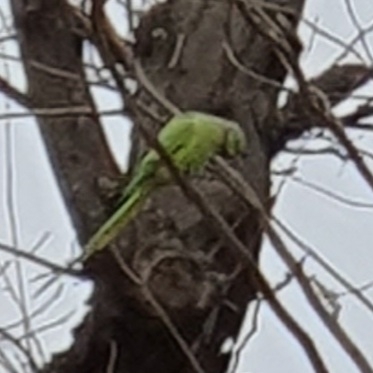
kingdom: Animalia
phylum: Chordata
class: Aves
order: Psittaciformes
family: Psittacidae
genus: Psittacula
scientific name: Psittacula krameri
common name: Rose-ringed parakeet
